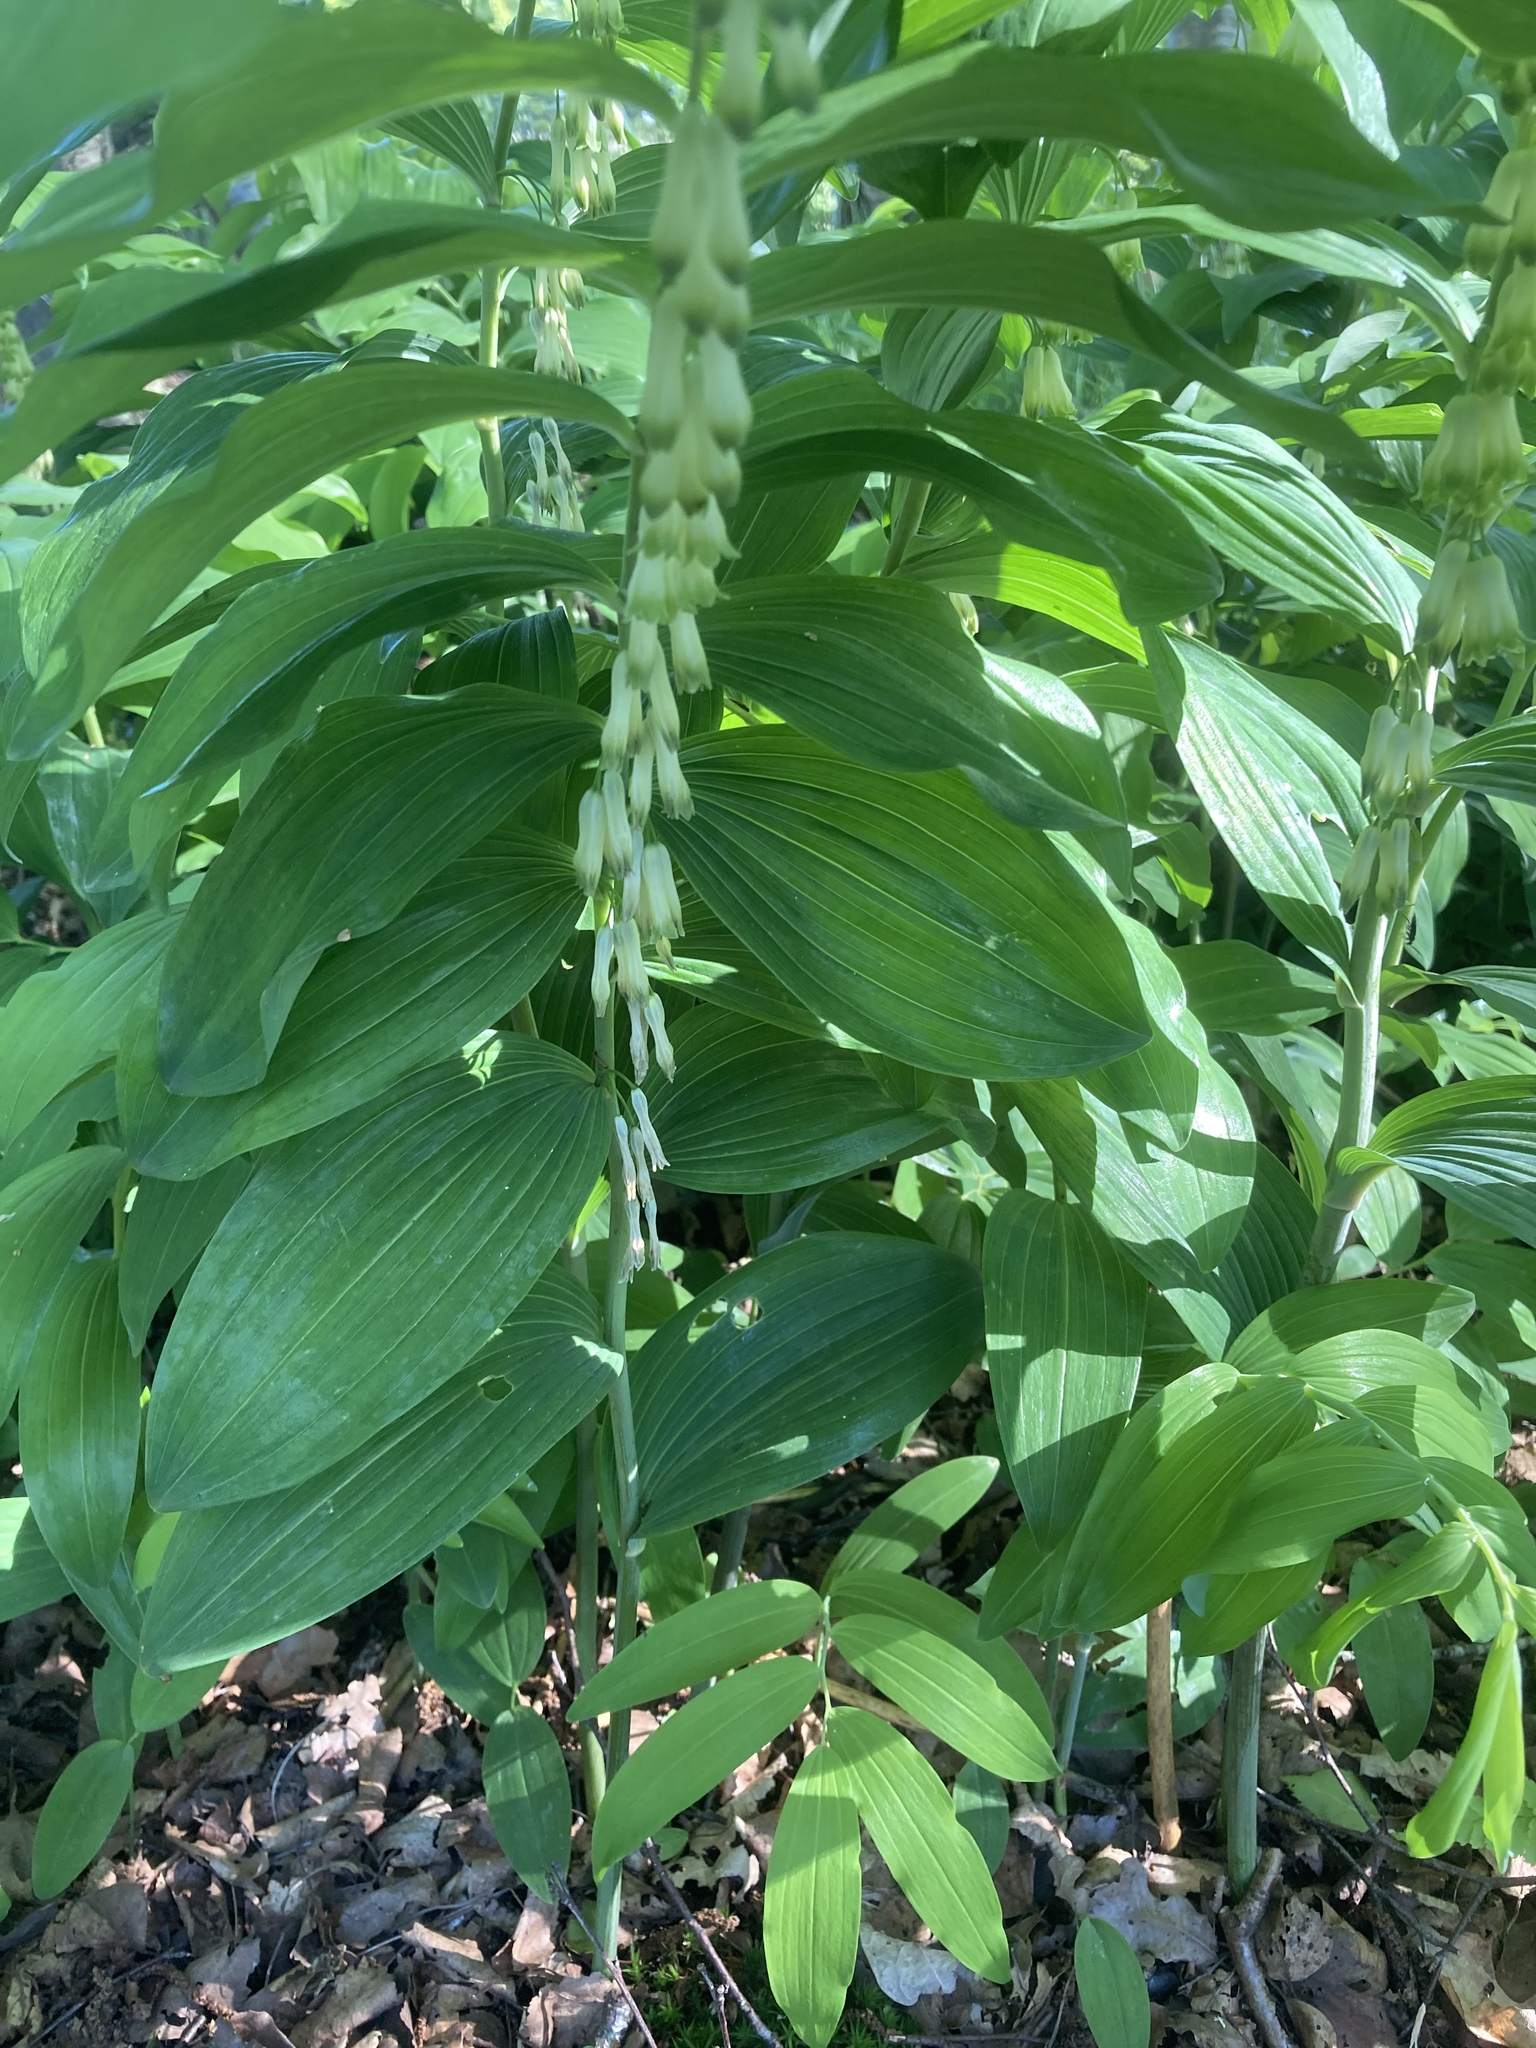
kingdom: Plantae
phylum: Tracheophyta
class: Liliopsida
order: Asparagales
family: Asparagaceae
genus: Polygonatum
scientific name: Polygonatum multiflorum
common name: Solomon's-seal
